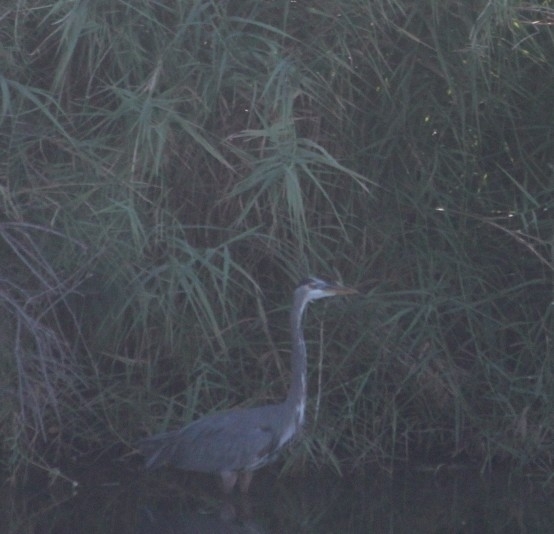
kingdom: Animalia
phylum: Chordata
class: Aves
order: Pelecaniformes
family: Ardeidae
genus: Ardea
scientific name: Ardea herodias
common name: Great blue heron
